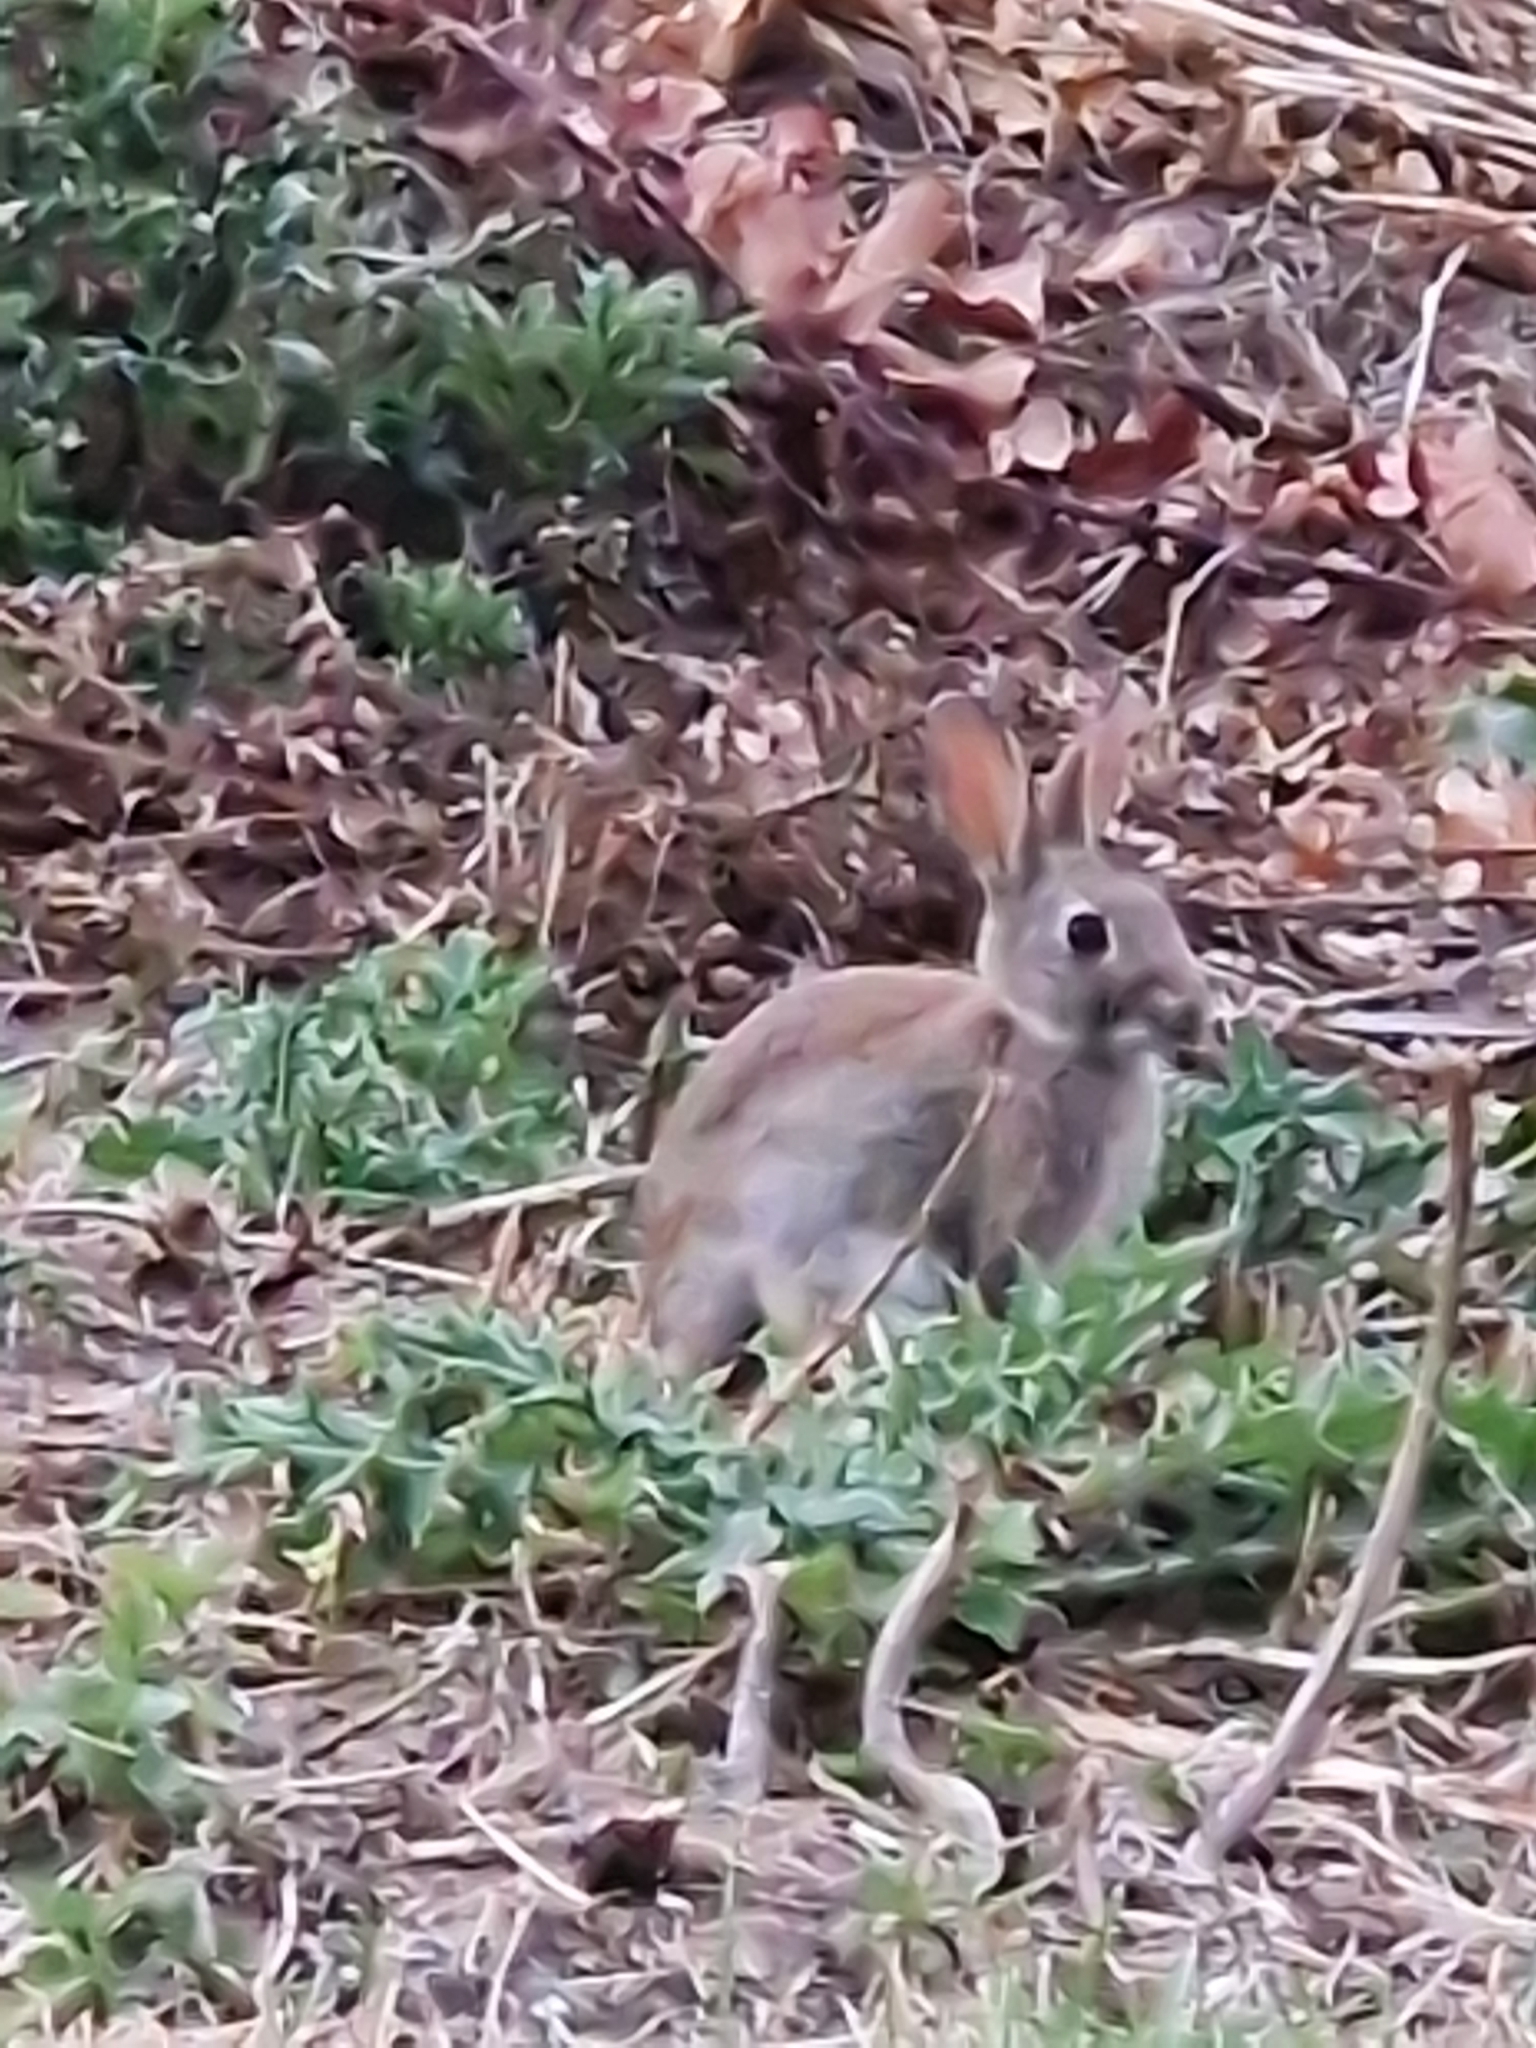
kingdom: Animalia
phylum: Chordata
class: Mammalia
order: Lagomorpha
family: Leporidae
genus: Oryctolagus
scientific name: Oryctolagus cuniculus
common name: European rabbit
